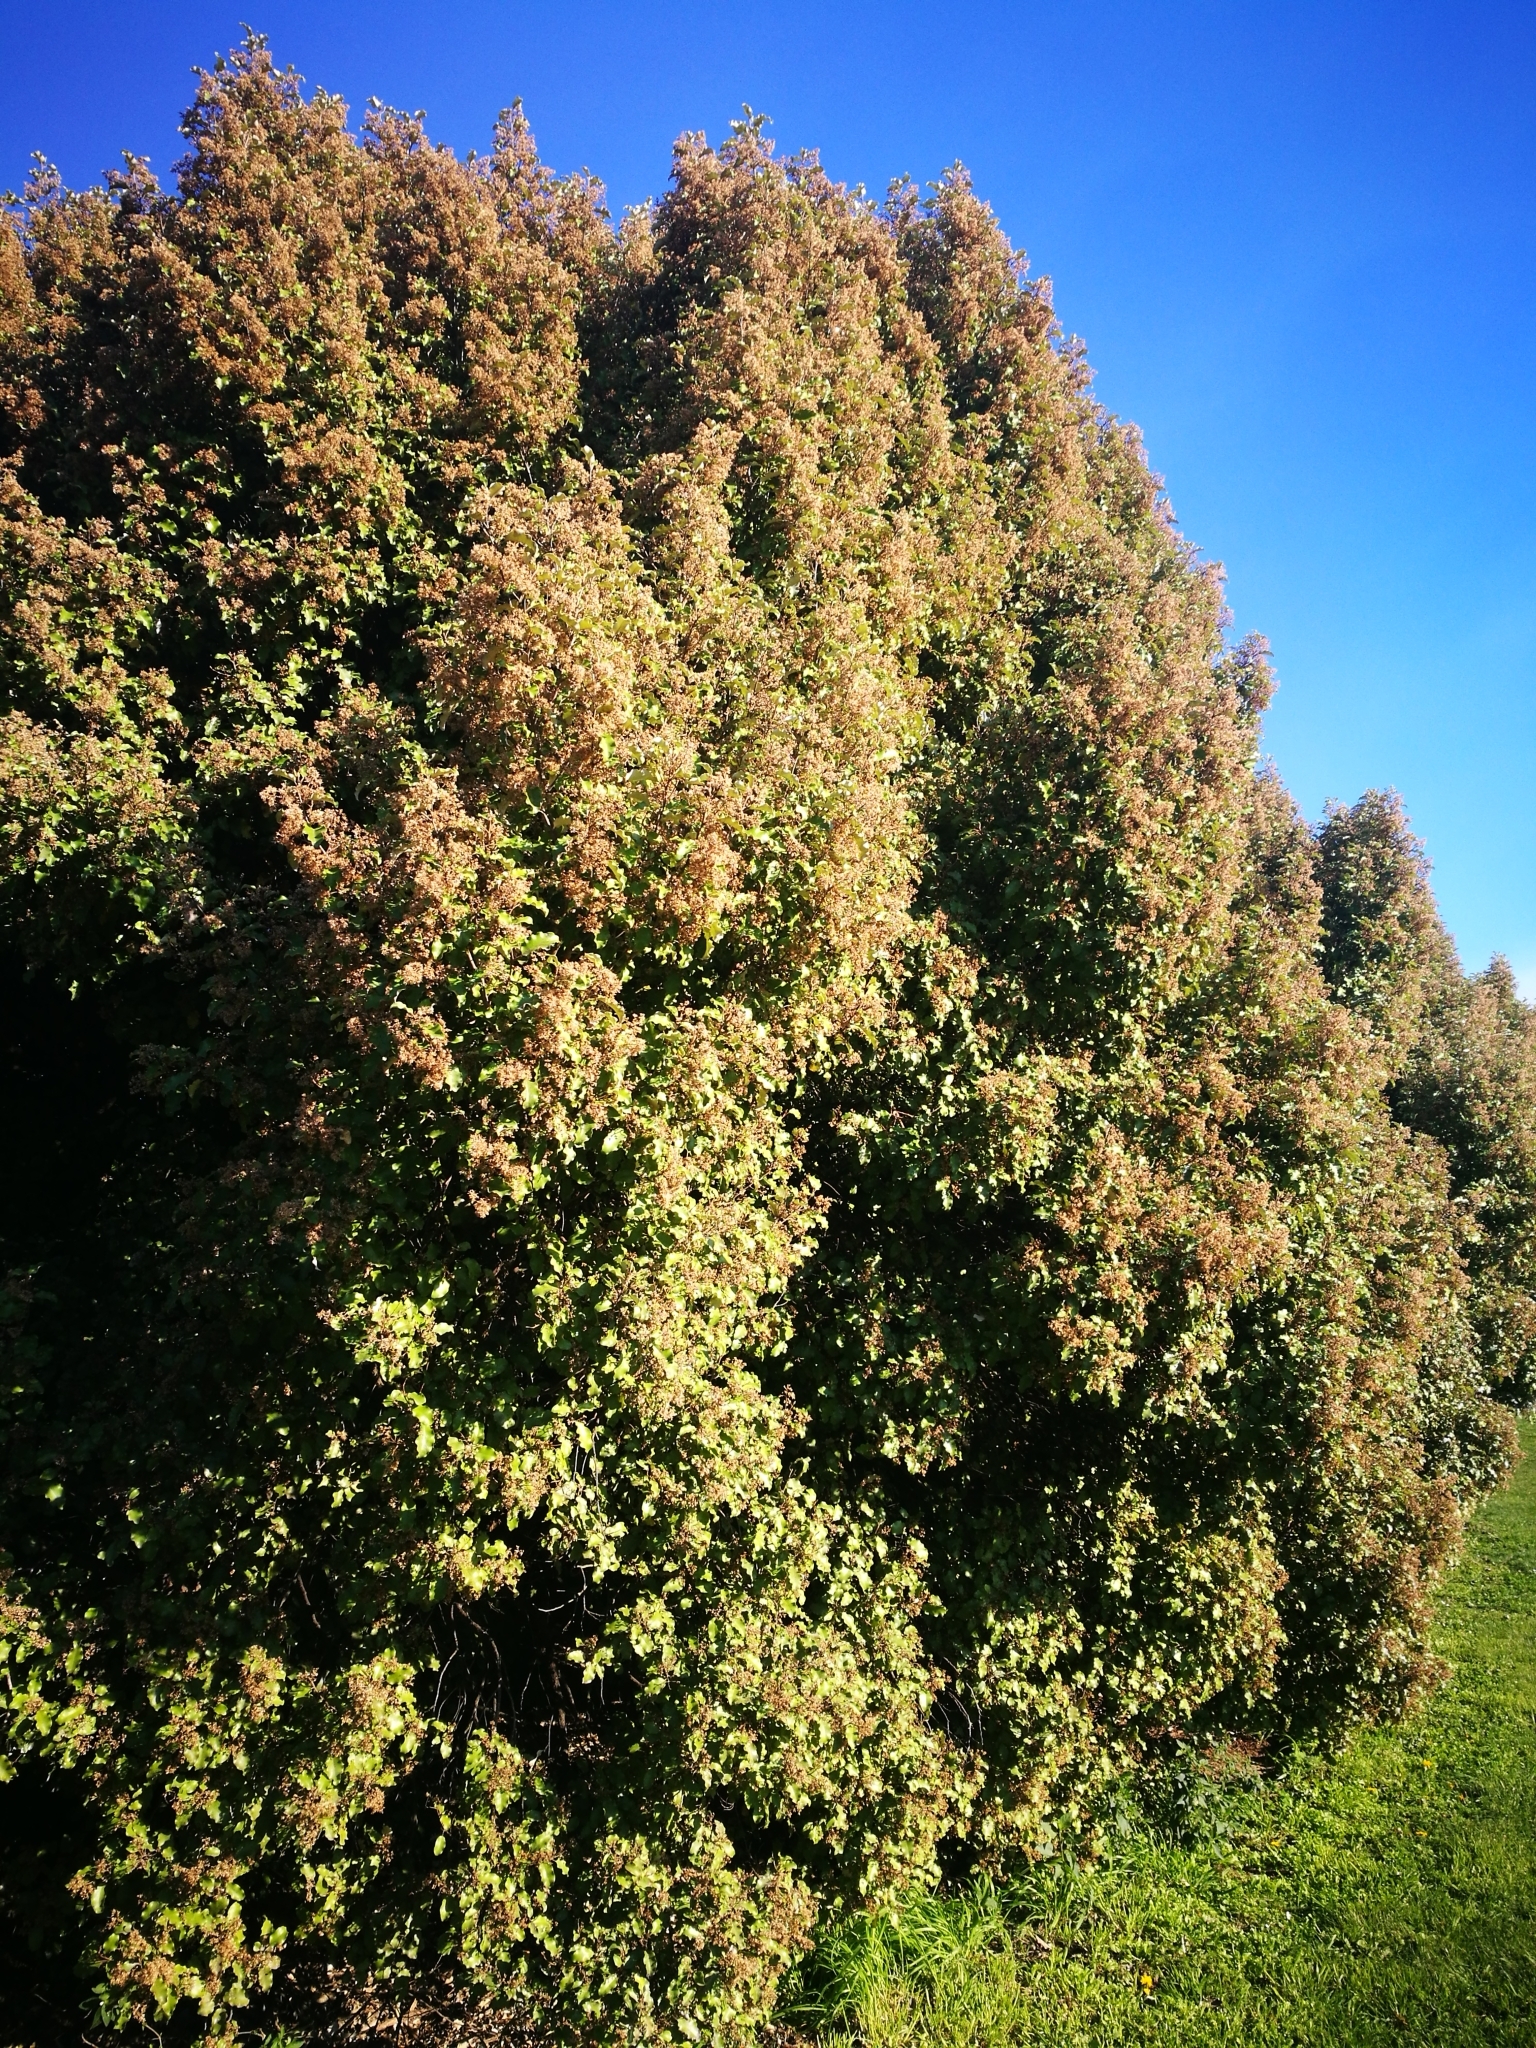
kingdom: Plantae
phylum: Tracheophyta
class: Magnoliopsida
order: Asterales
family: Asteraceae
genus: Olearia
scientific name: Olearia paniculata
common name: Akiraho
